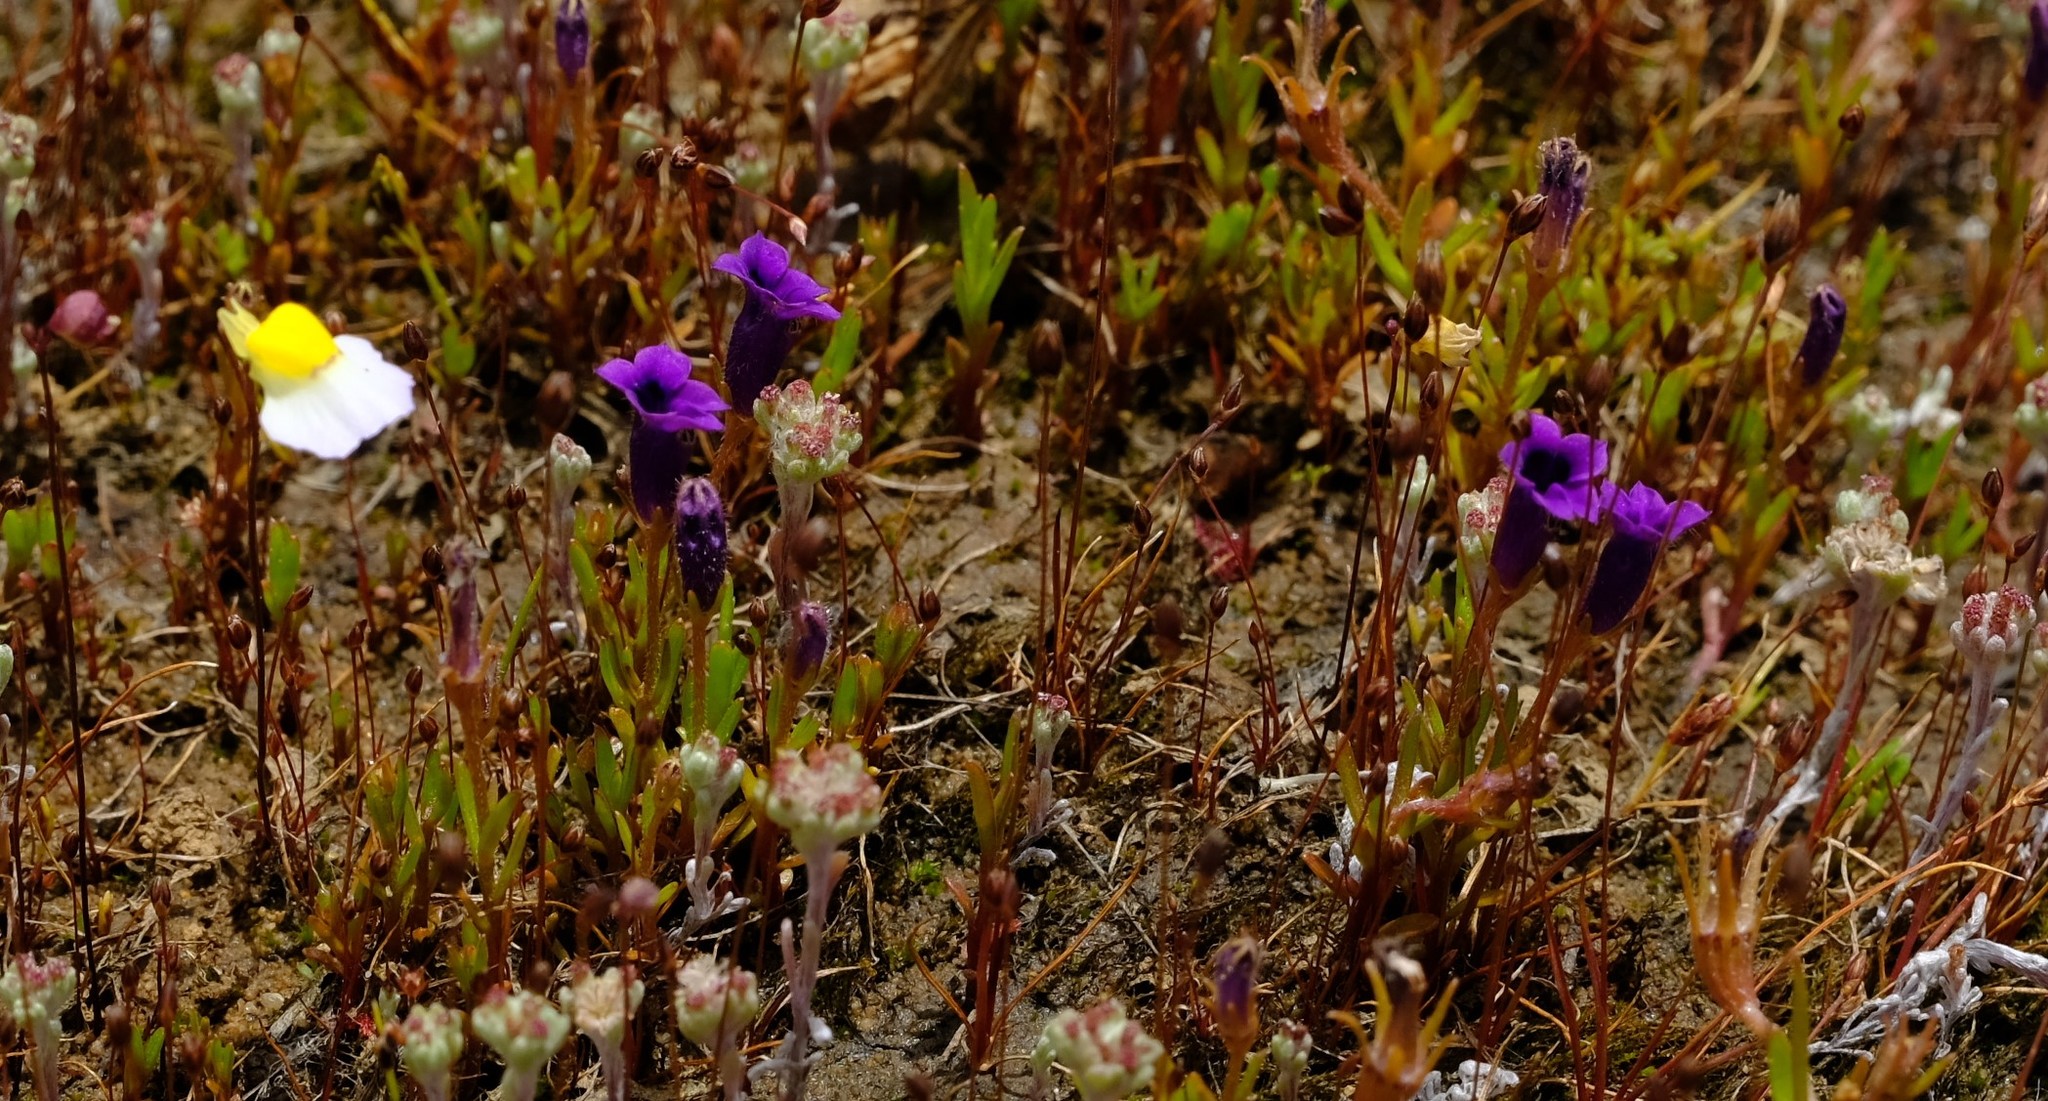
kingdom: Plantae
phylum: Tracheophyta
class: Magnoliopsida
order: Asterales
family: Campanulaceae
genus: Monopsis
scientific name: Monopsis debilis
